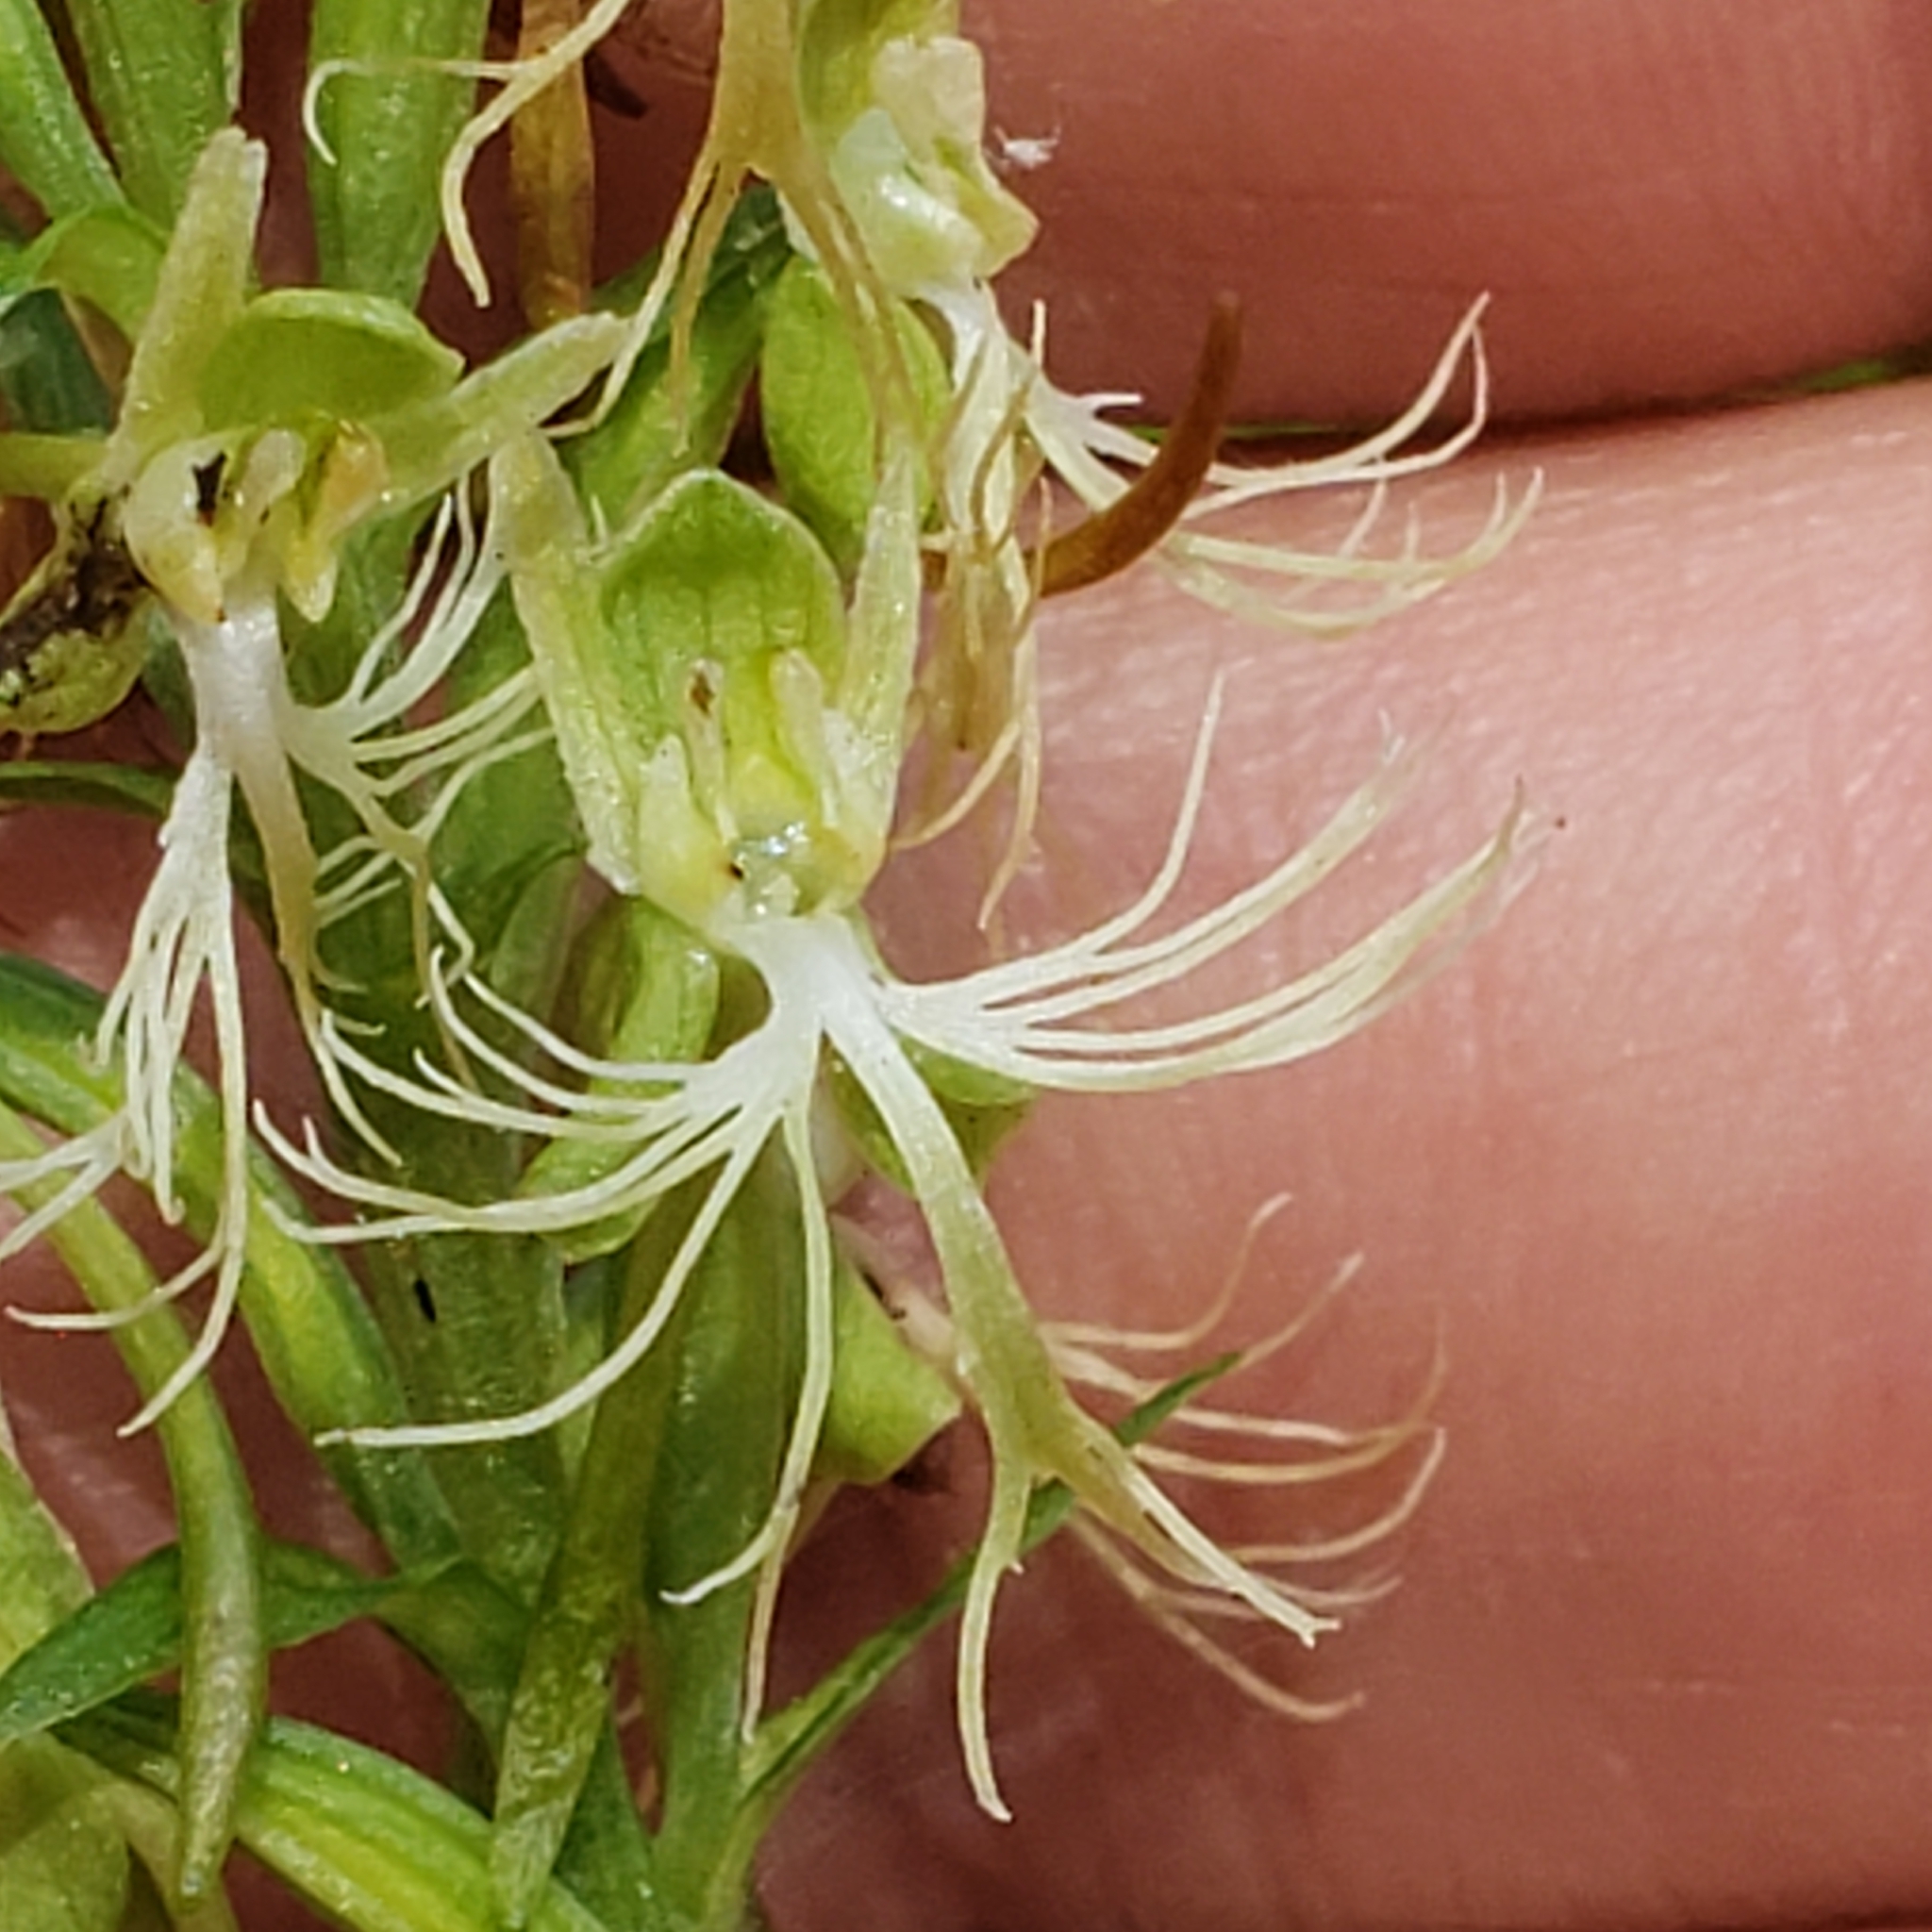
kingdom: Plantae
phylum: Tracheophyta
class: Liliopsida
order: Asparagales
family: Orchidaceae
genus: Platanthera
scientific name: Platanthera lacera
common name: Green fringed orchid
